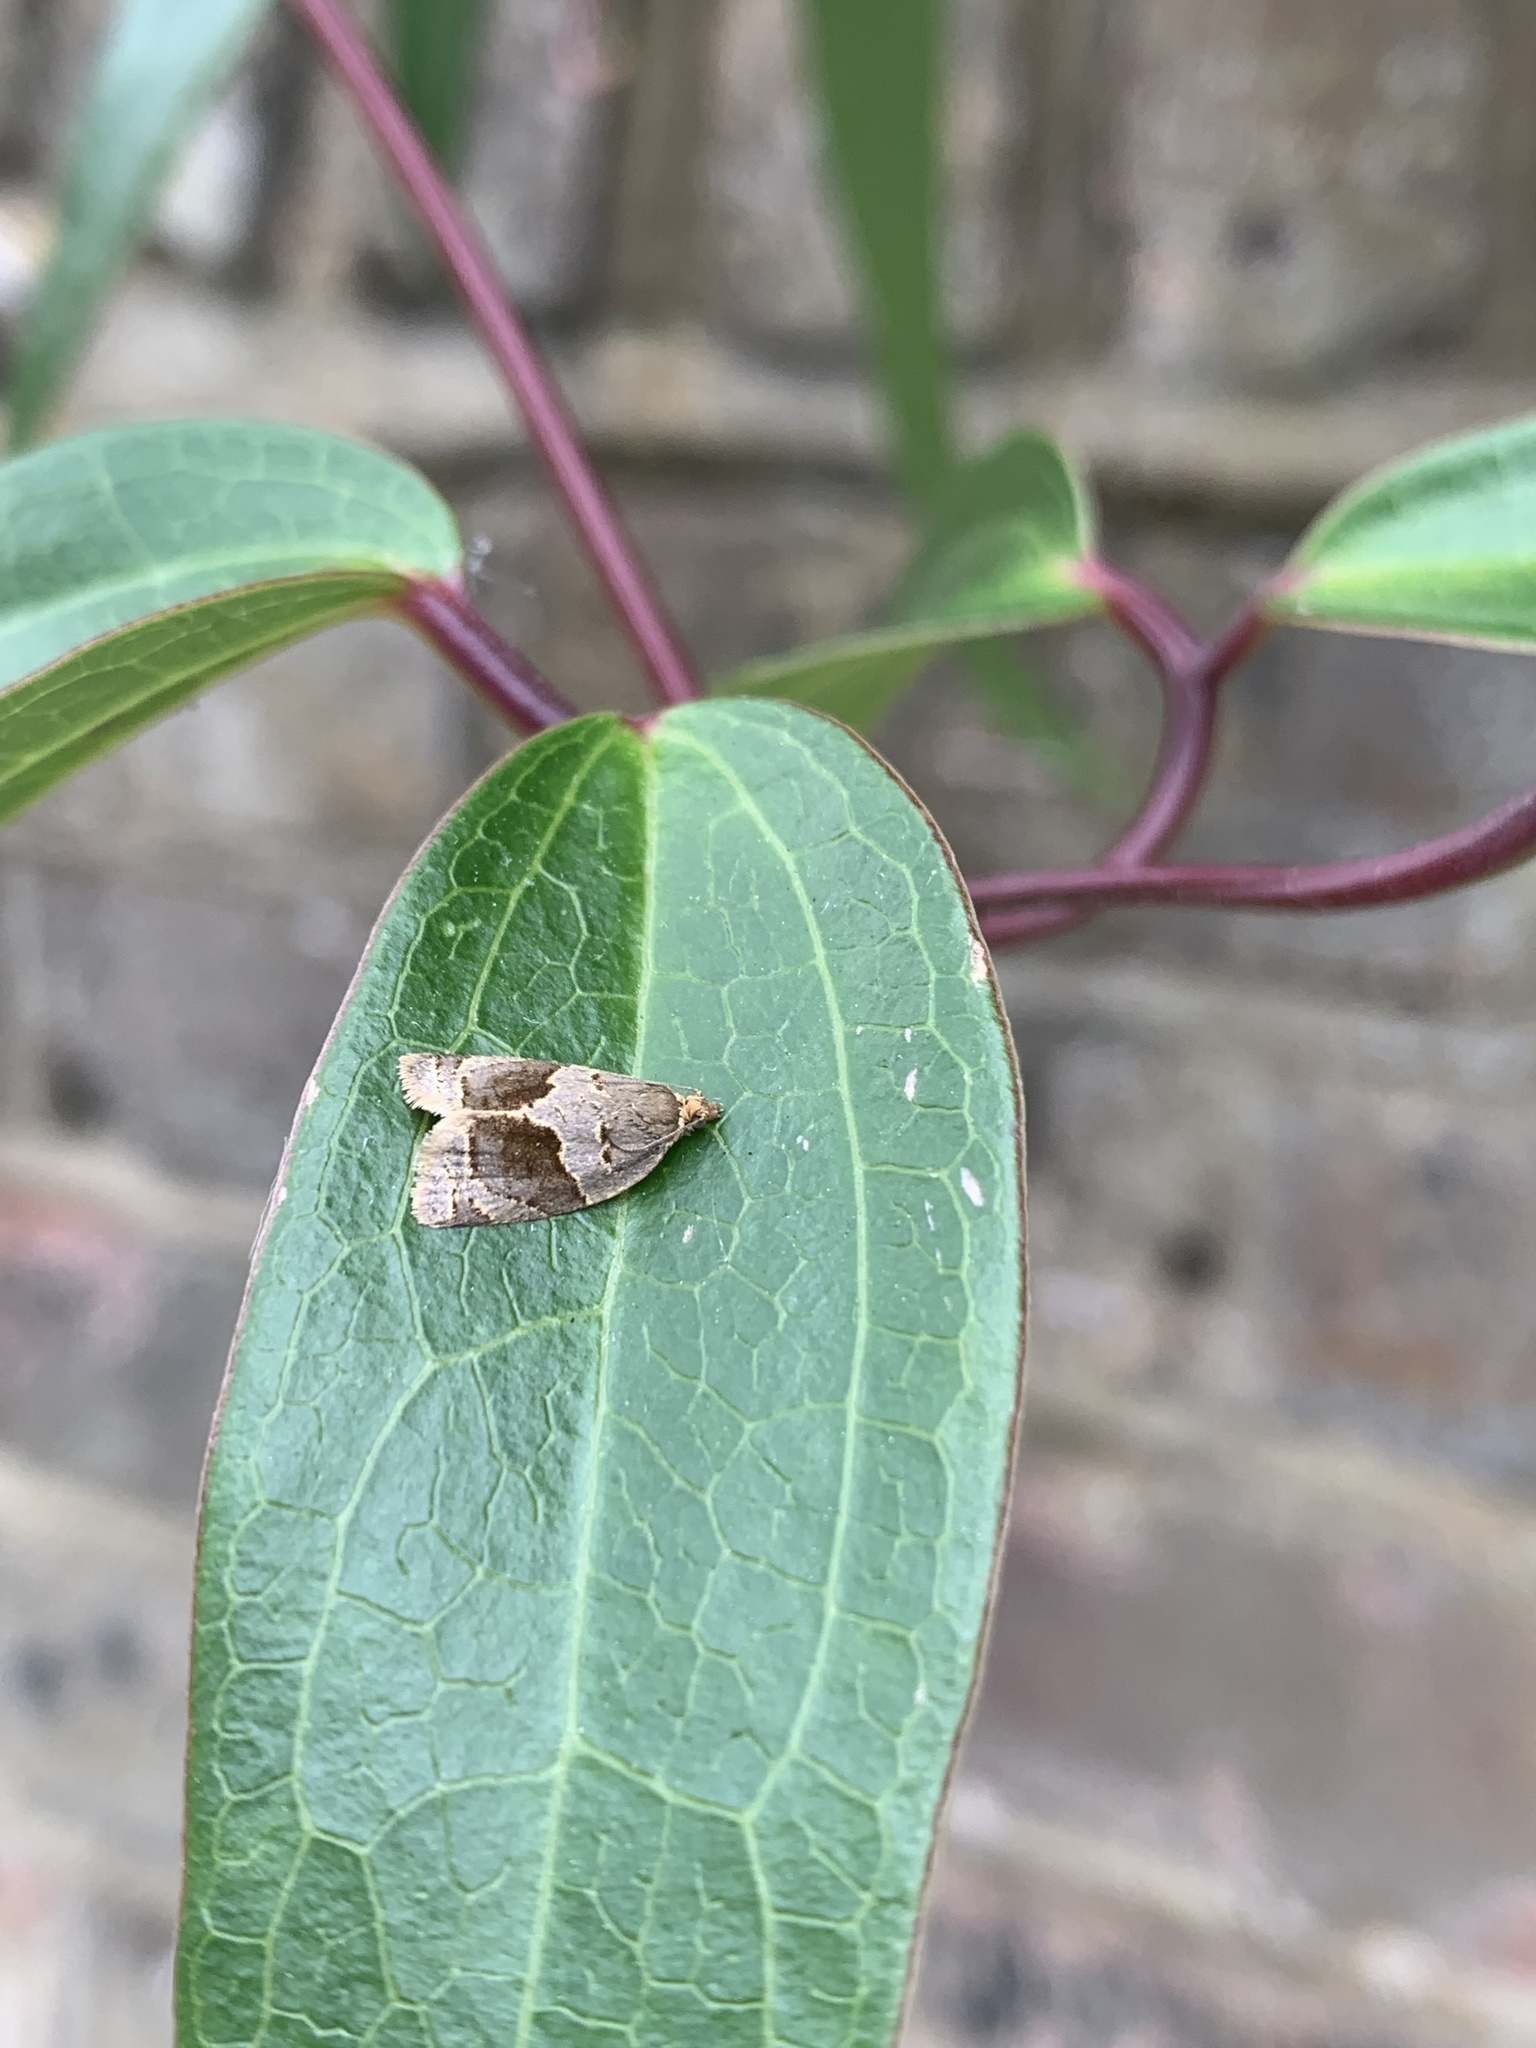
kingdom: Animalia
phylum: Arthropoda
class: Insecta
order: Lepidoptera
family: Tortricidae
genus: Clepsis
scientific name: Clepsis dumicolana
